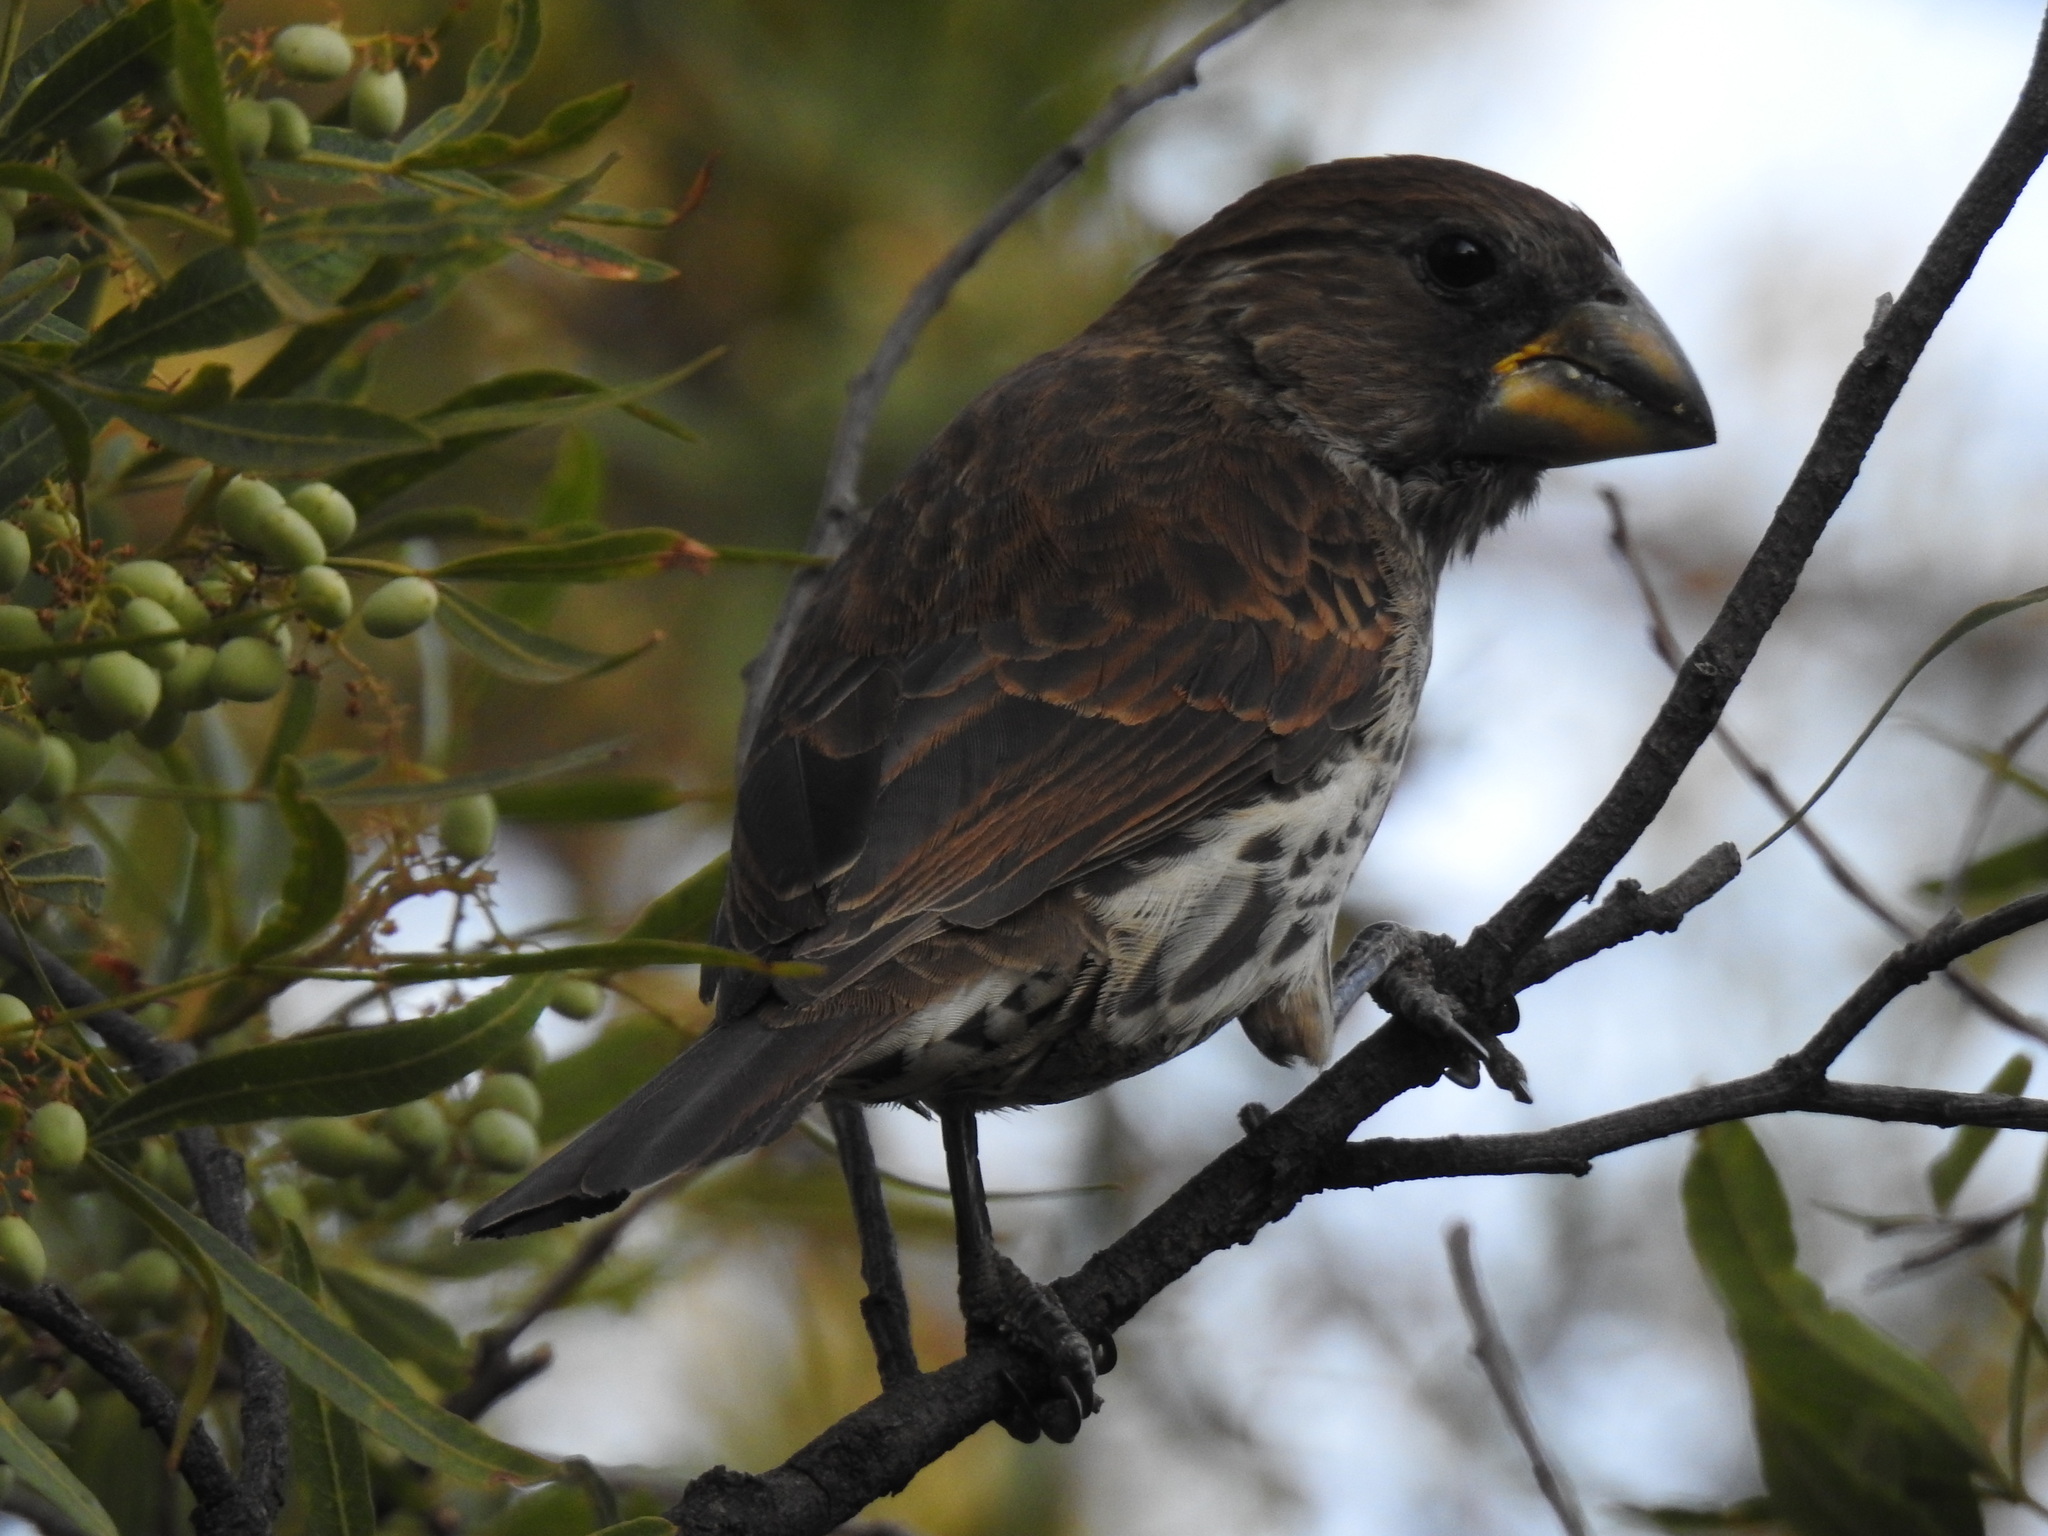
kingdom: Animalia
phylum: Chordata
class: Aves
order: Passeriformes
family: Ploceidae
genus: Amblyospiza
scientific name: Amblyospiza albifrons
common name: Thick-billed weaver
